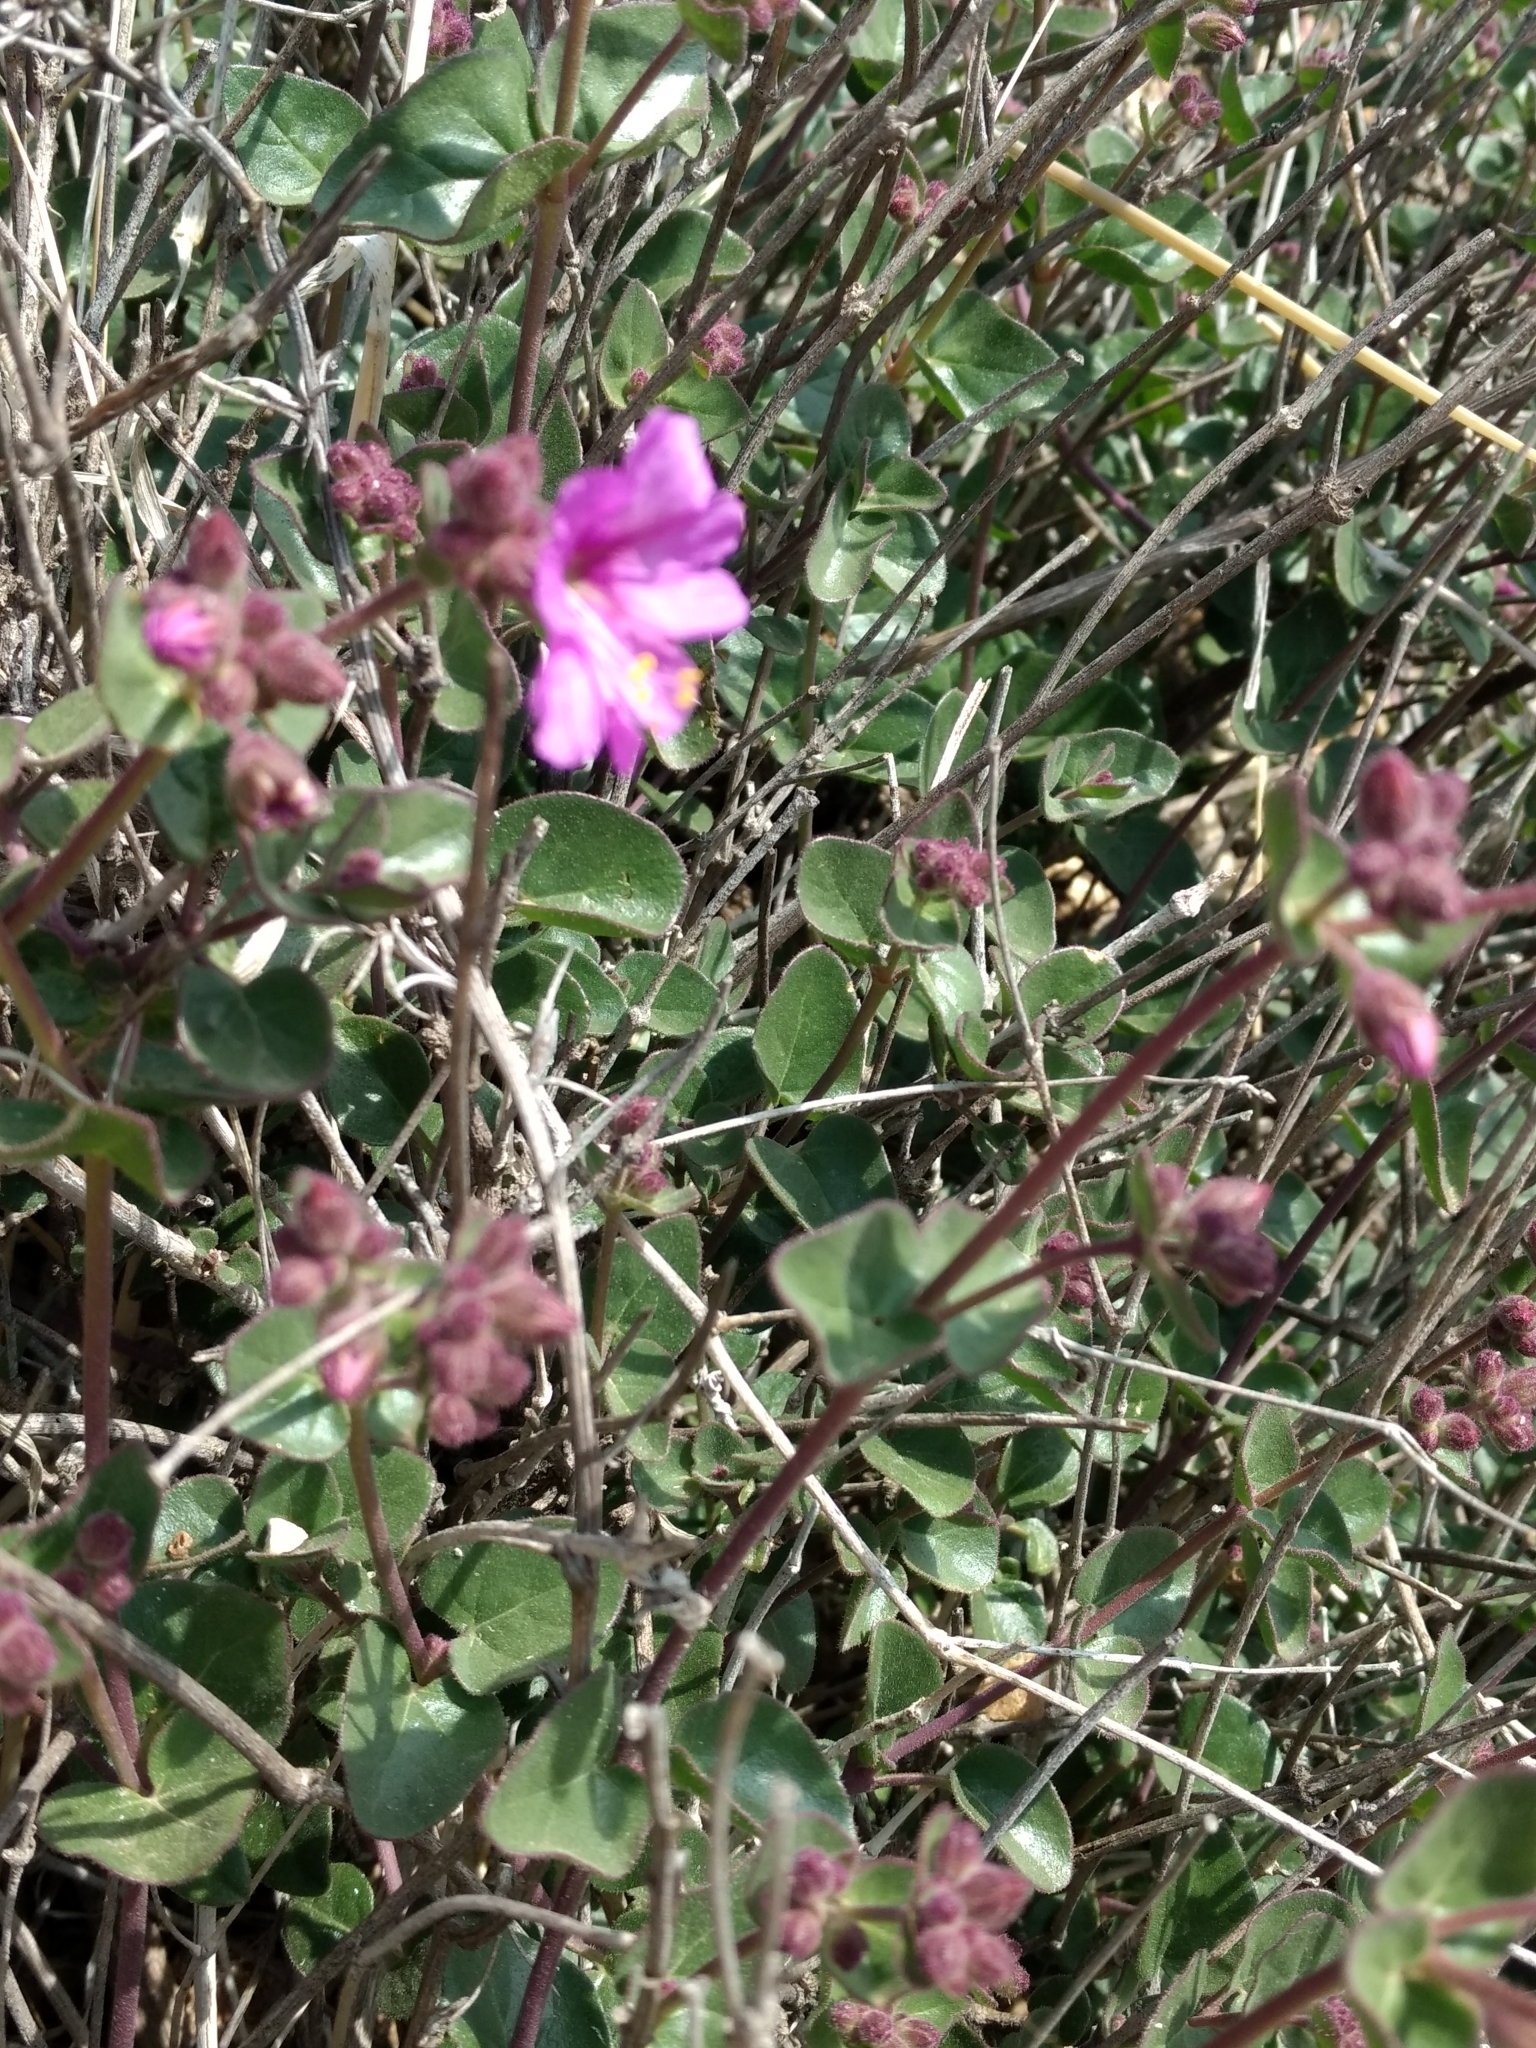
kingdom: Plantae
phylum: Tracheophyta
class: Magnoliopsida
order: Caryophyllales
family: Nyctaginaceae
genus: Mirabilis
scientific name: Mirabilis laevis
